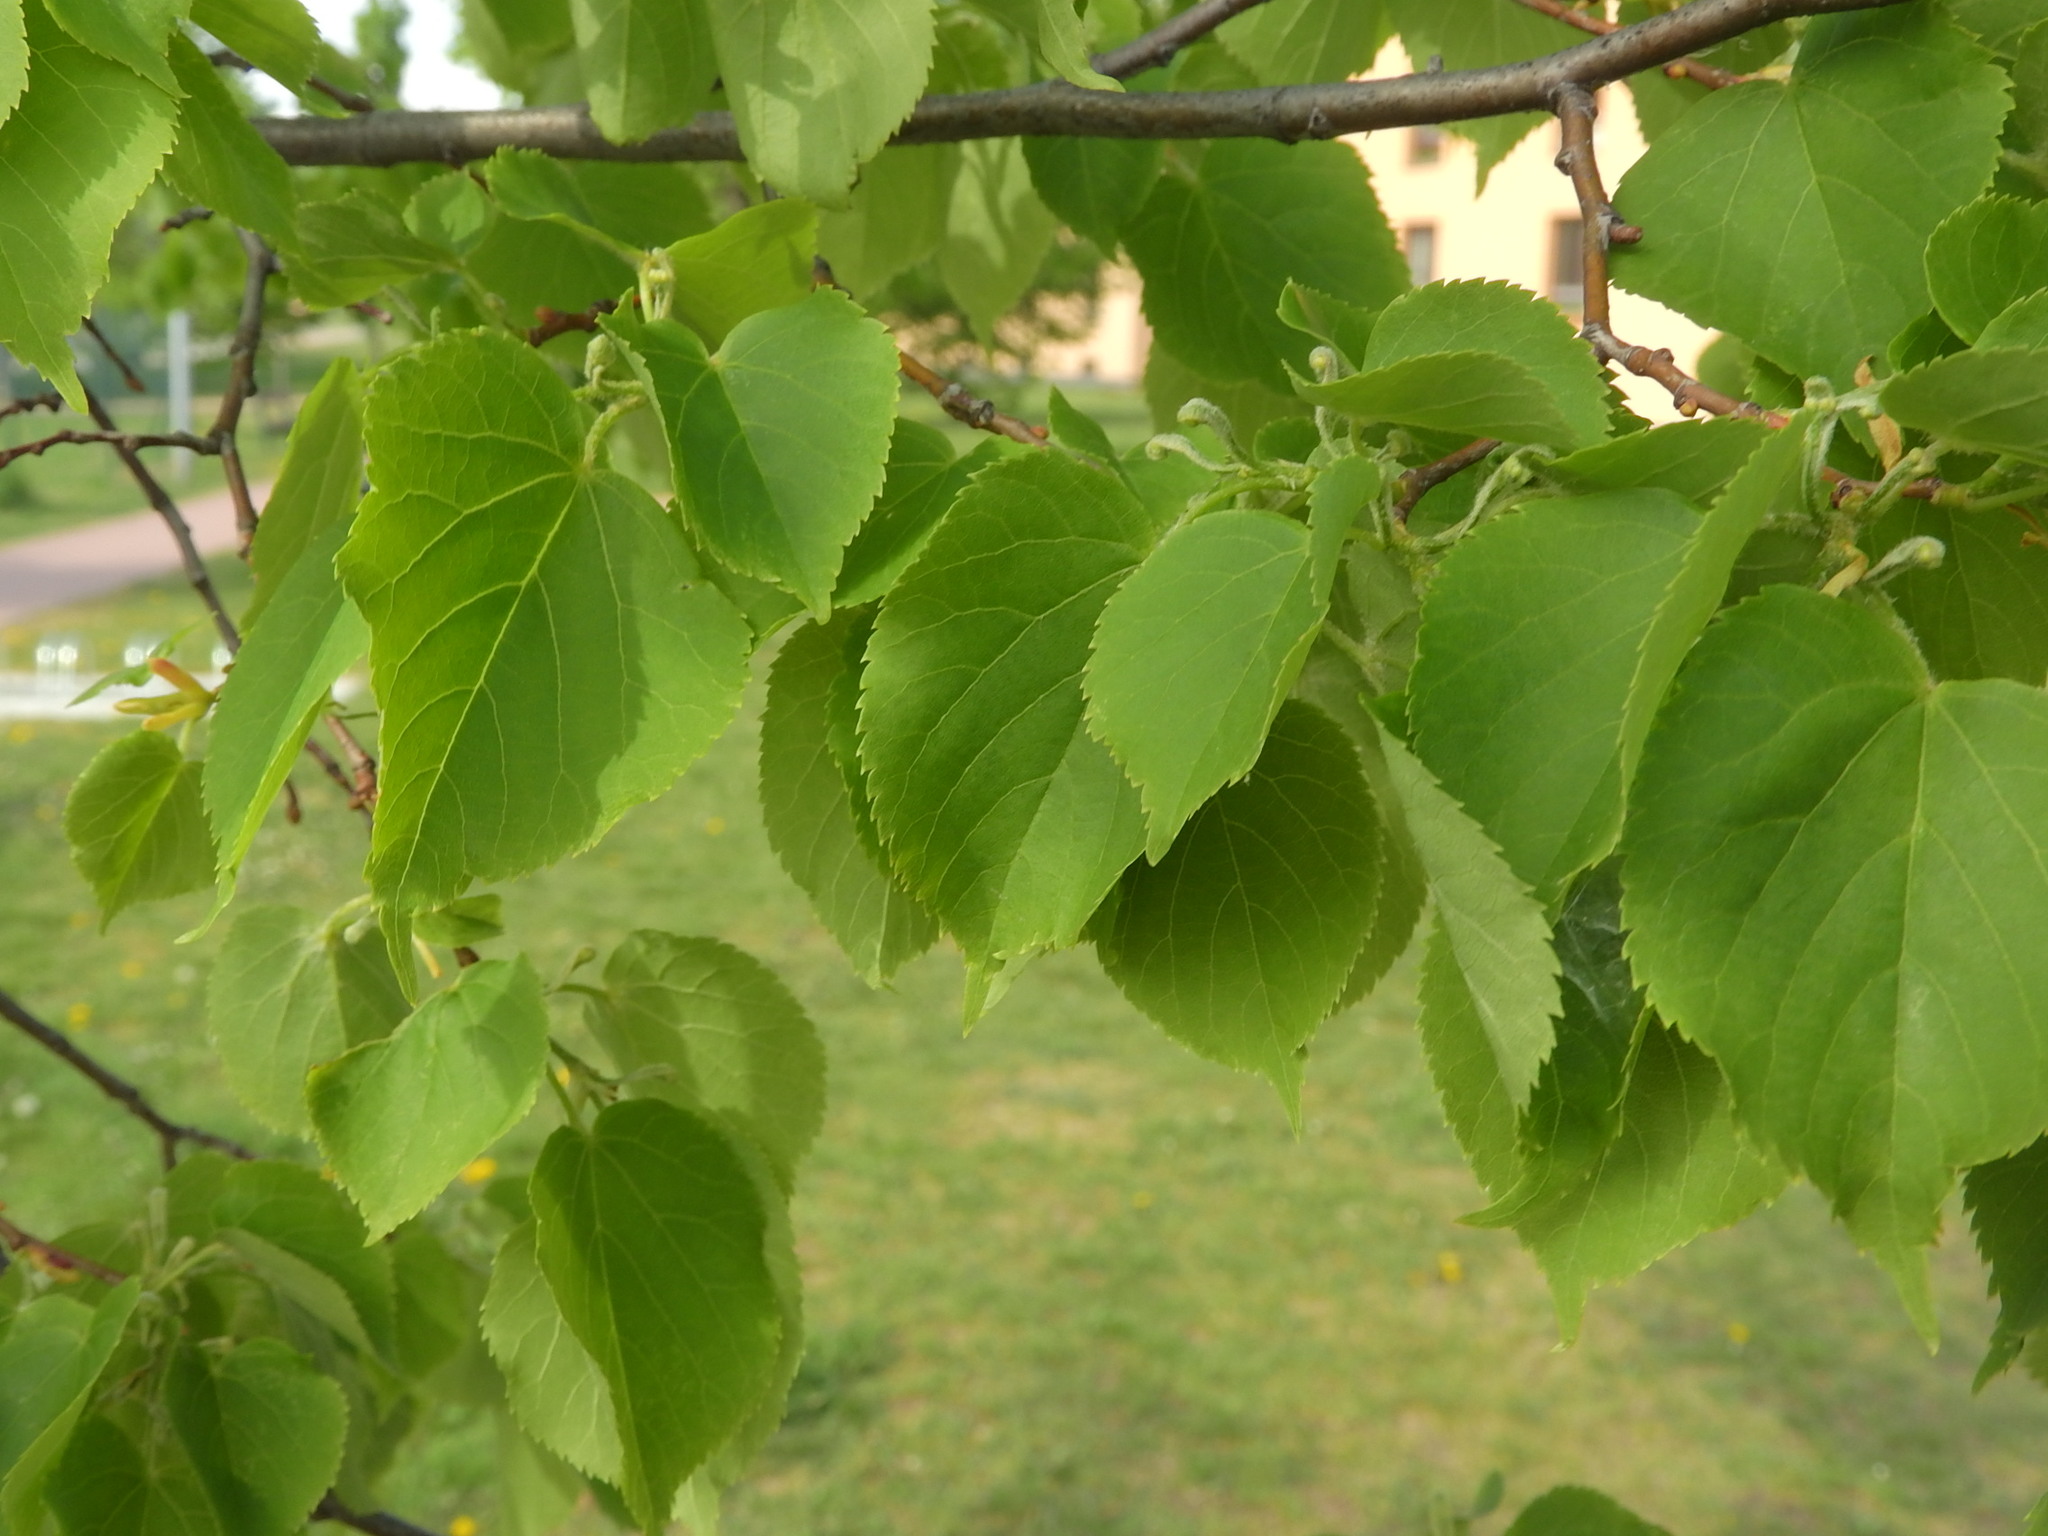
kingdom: Plantae
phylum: Tracheophyta
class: Magnoliopsida
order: Malvales
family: Malvaceae
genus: Tilia
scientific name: Tilia cordata
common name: Small-leaved lime
